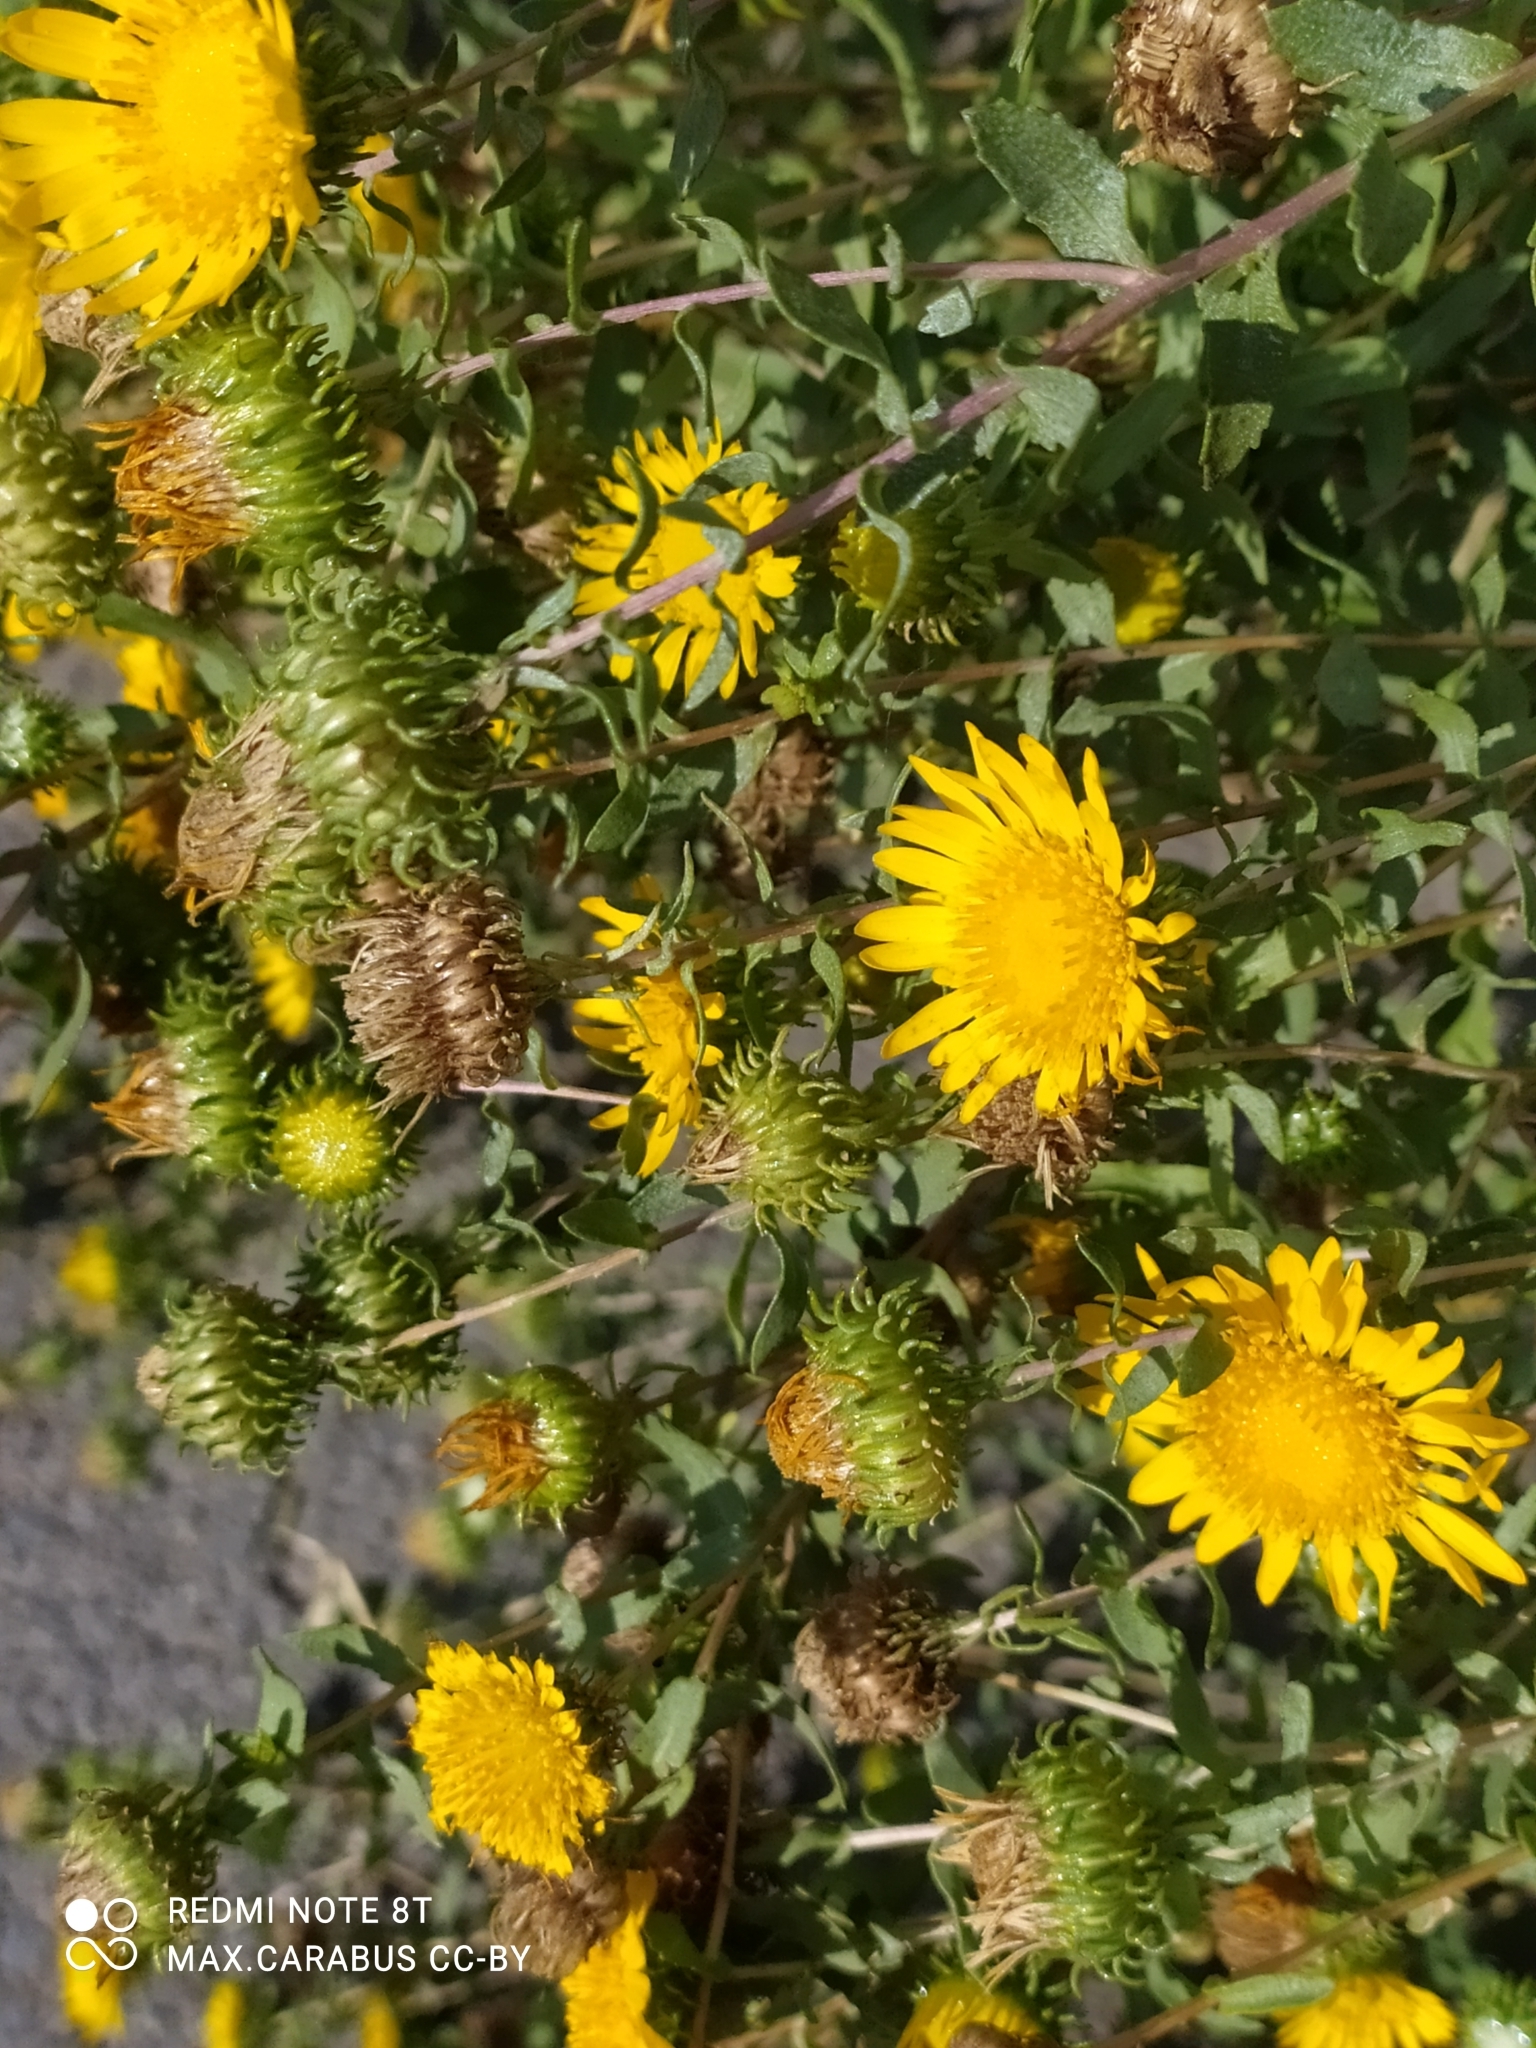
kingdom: Plantae
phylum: Tracheophyta
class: Magnoliopsida
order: Asterales
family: Asteraceae
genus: Grindelia
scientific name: Grindelia squarrosa
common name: Curly-cup gumweed
